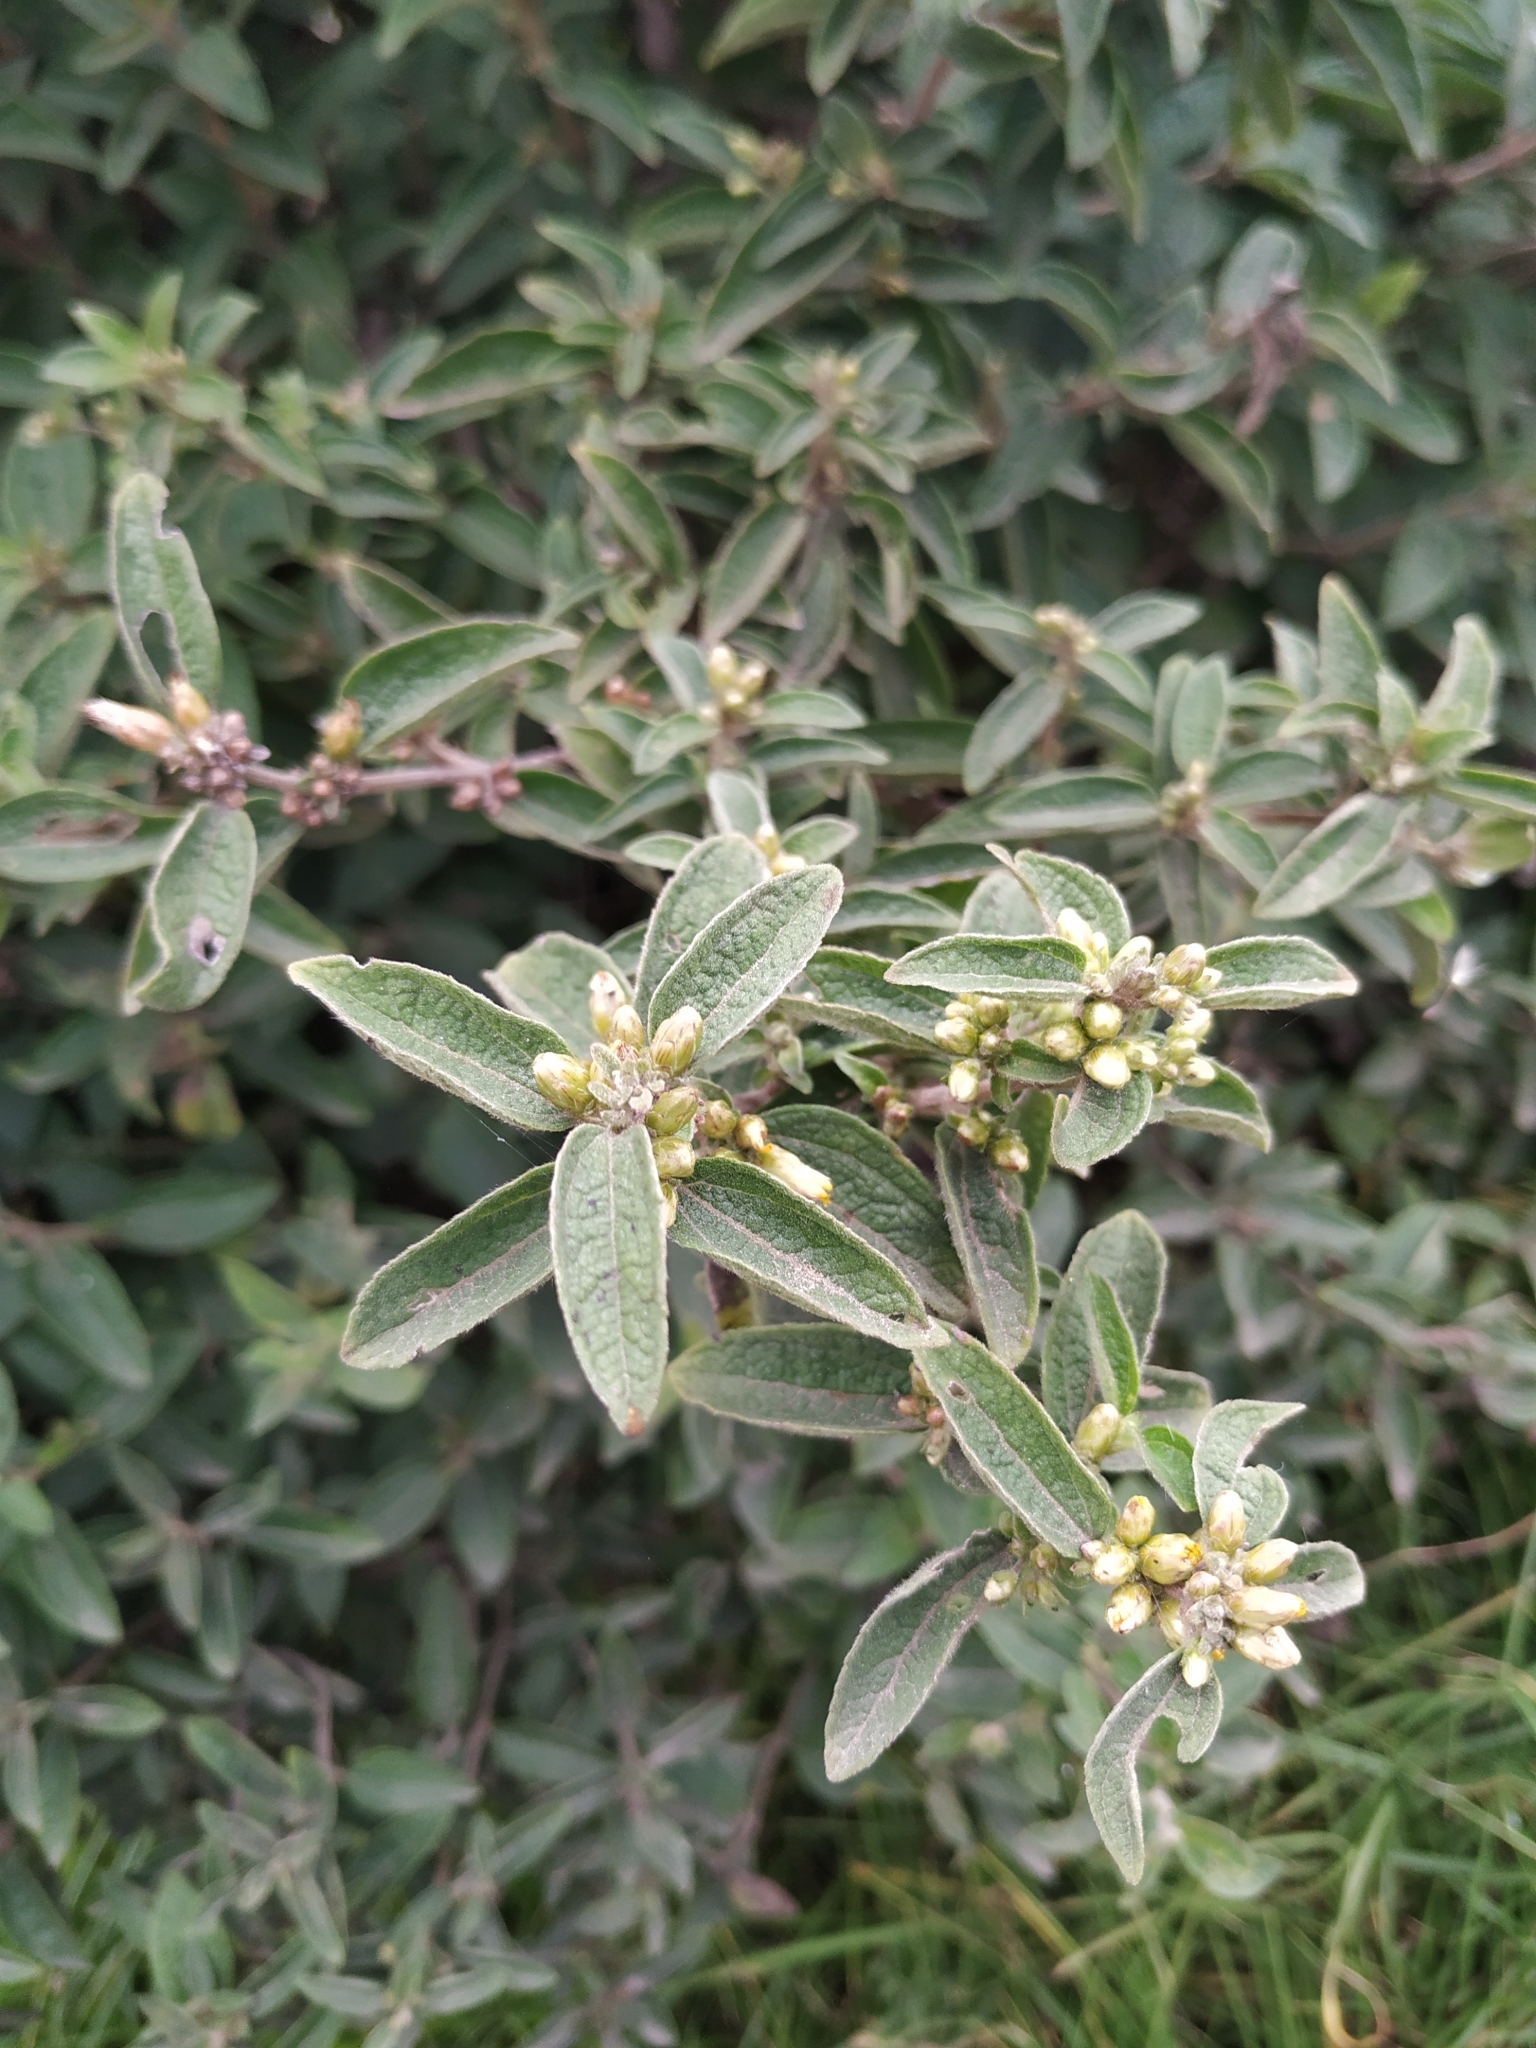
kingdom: Plantae
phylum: Tracheophyta
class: Magnoliopsida
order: Asterales
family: Asteraceae
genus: Calea
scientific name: Calea sessiliflora
